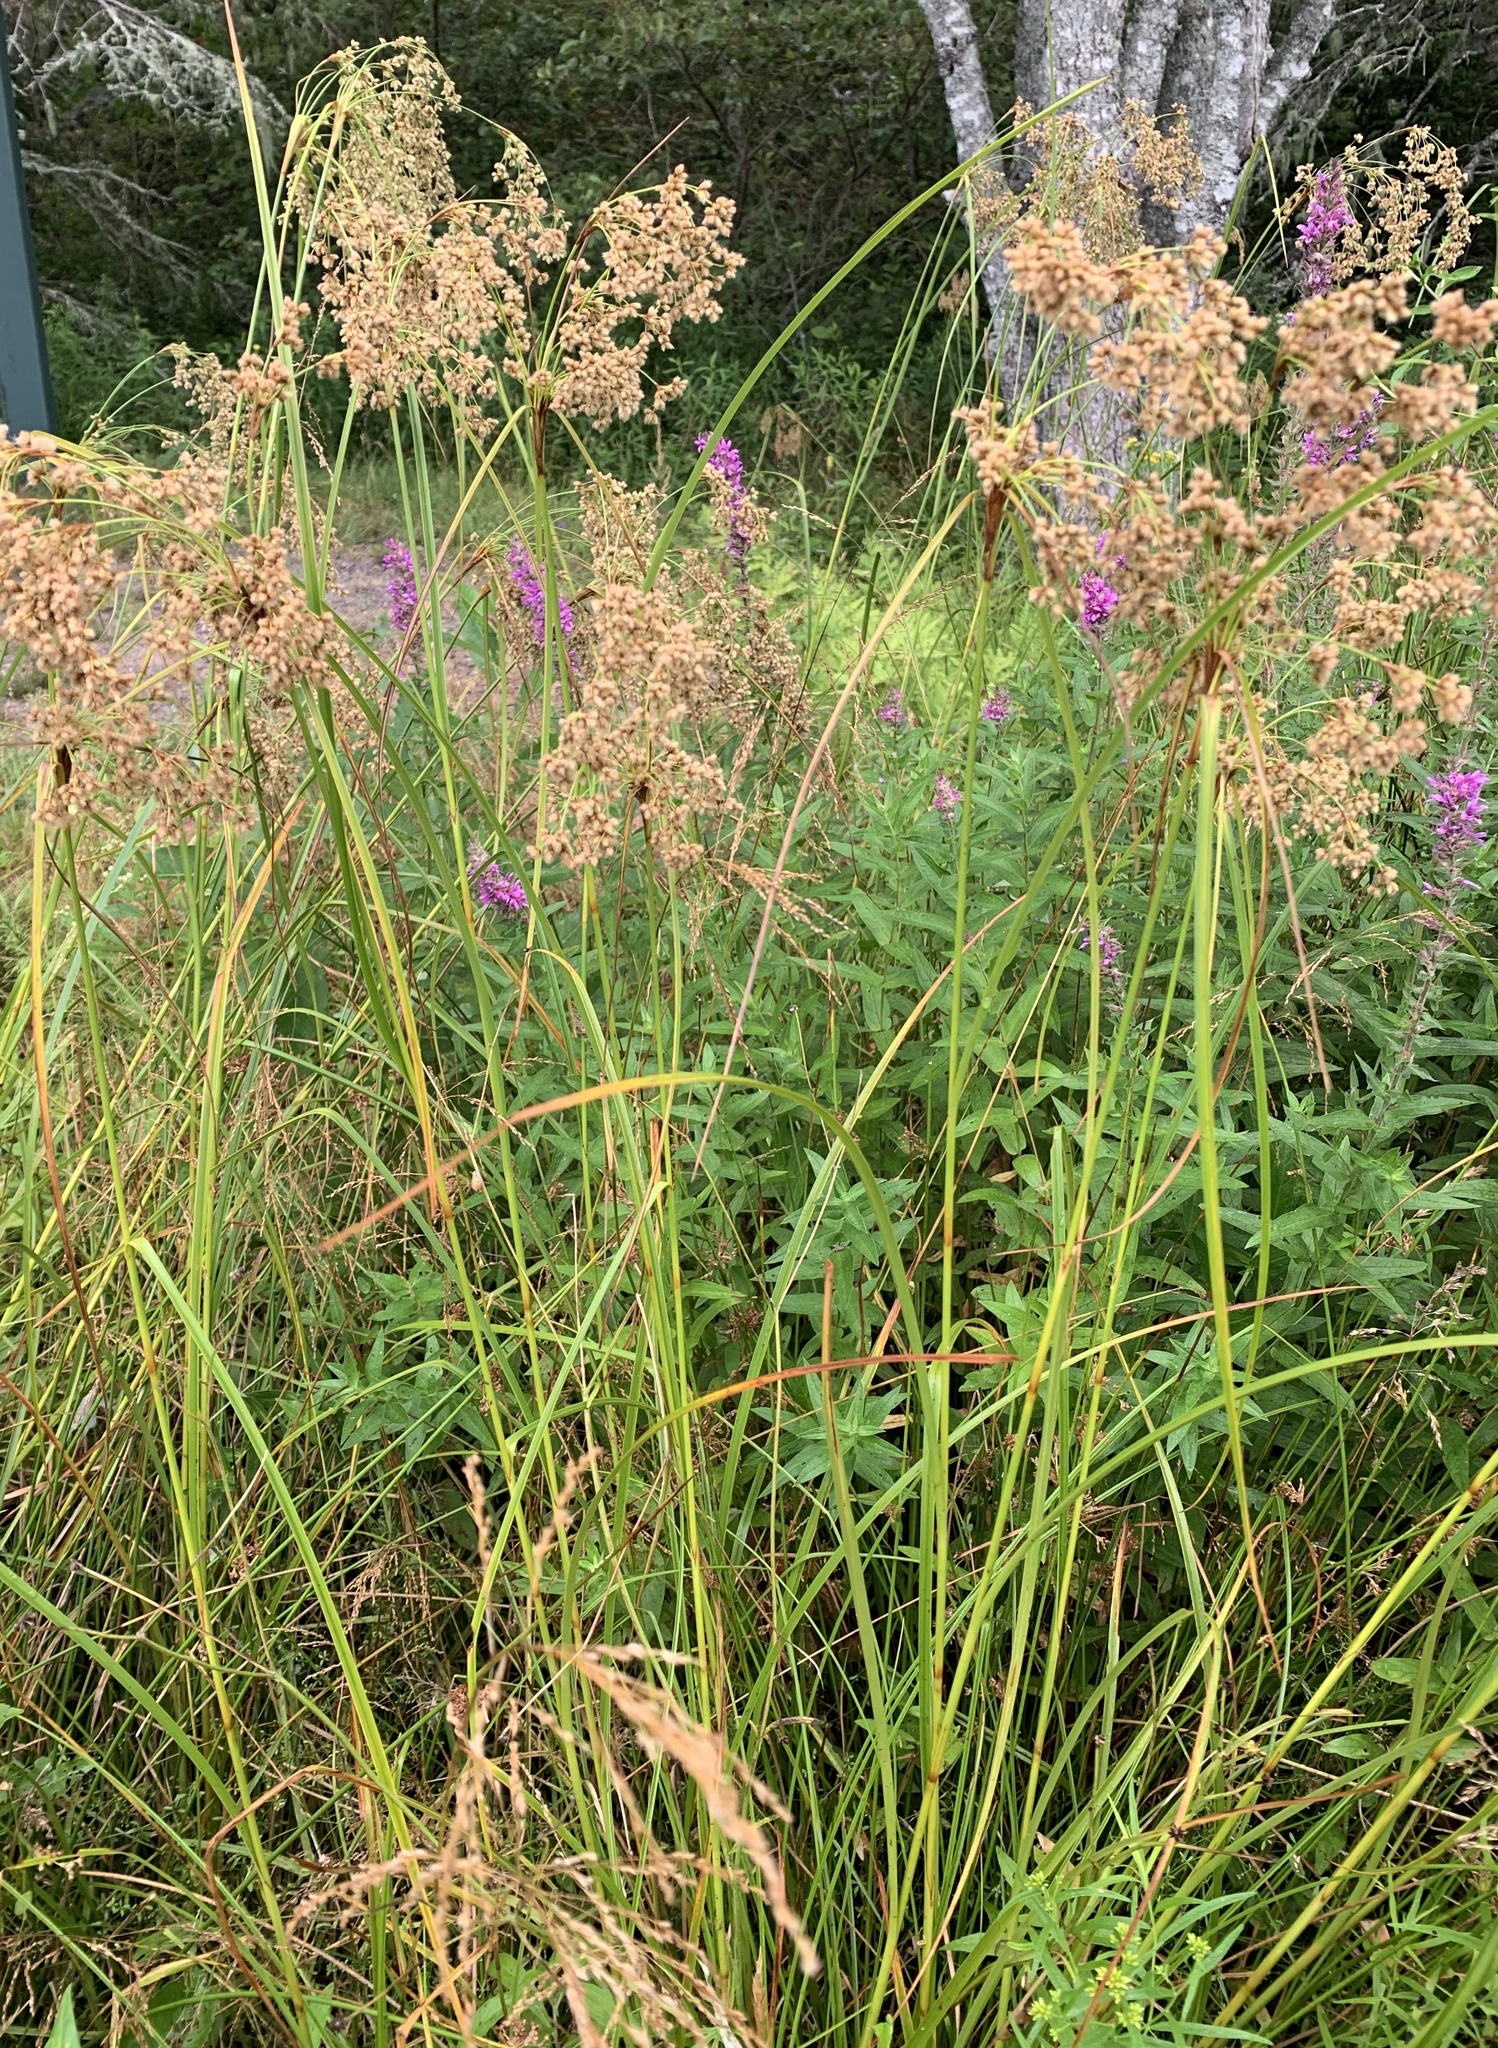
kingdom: Plantae
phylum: Tracheophyta
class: Liliopsida
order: Poales
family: Cyperaceae
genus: Scirpus
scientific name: Scirpus cyperinus
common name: Black-sheathed bulrush
